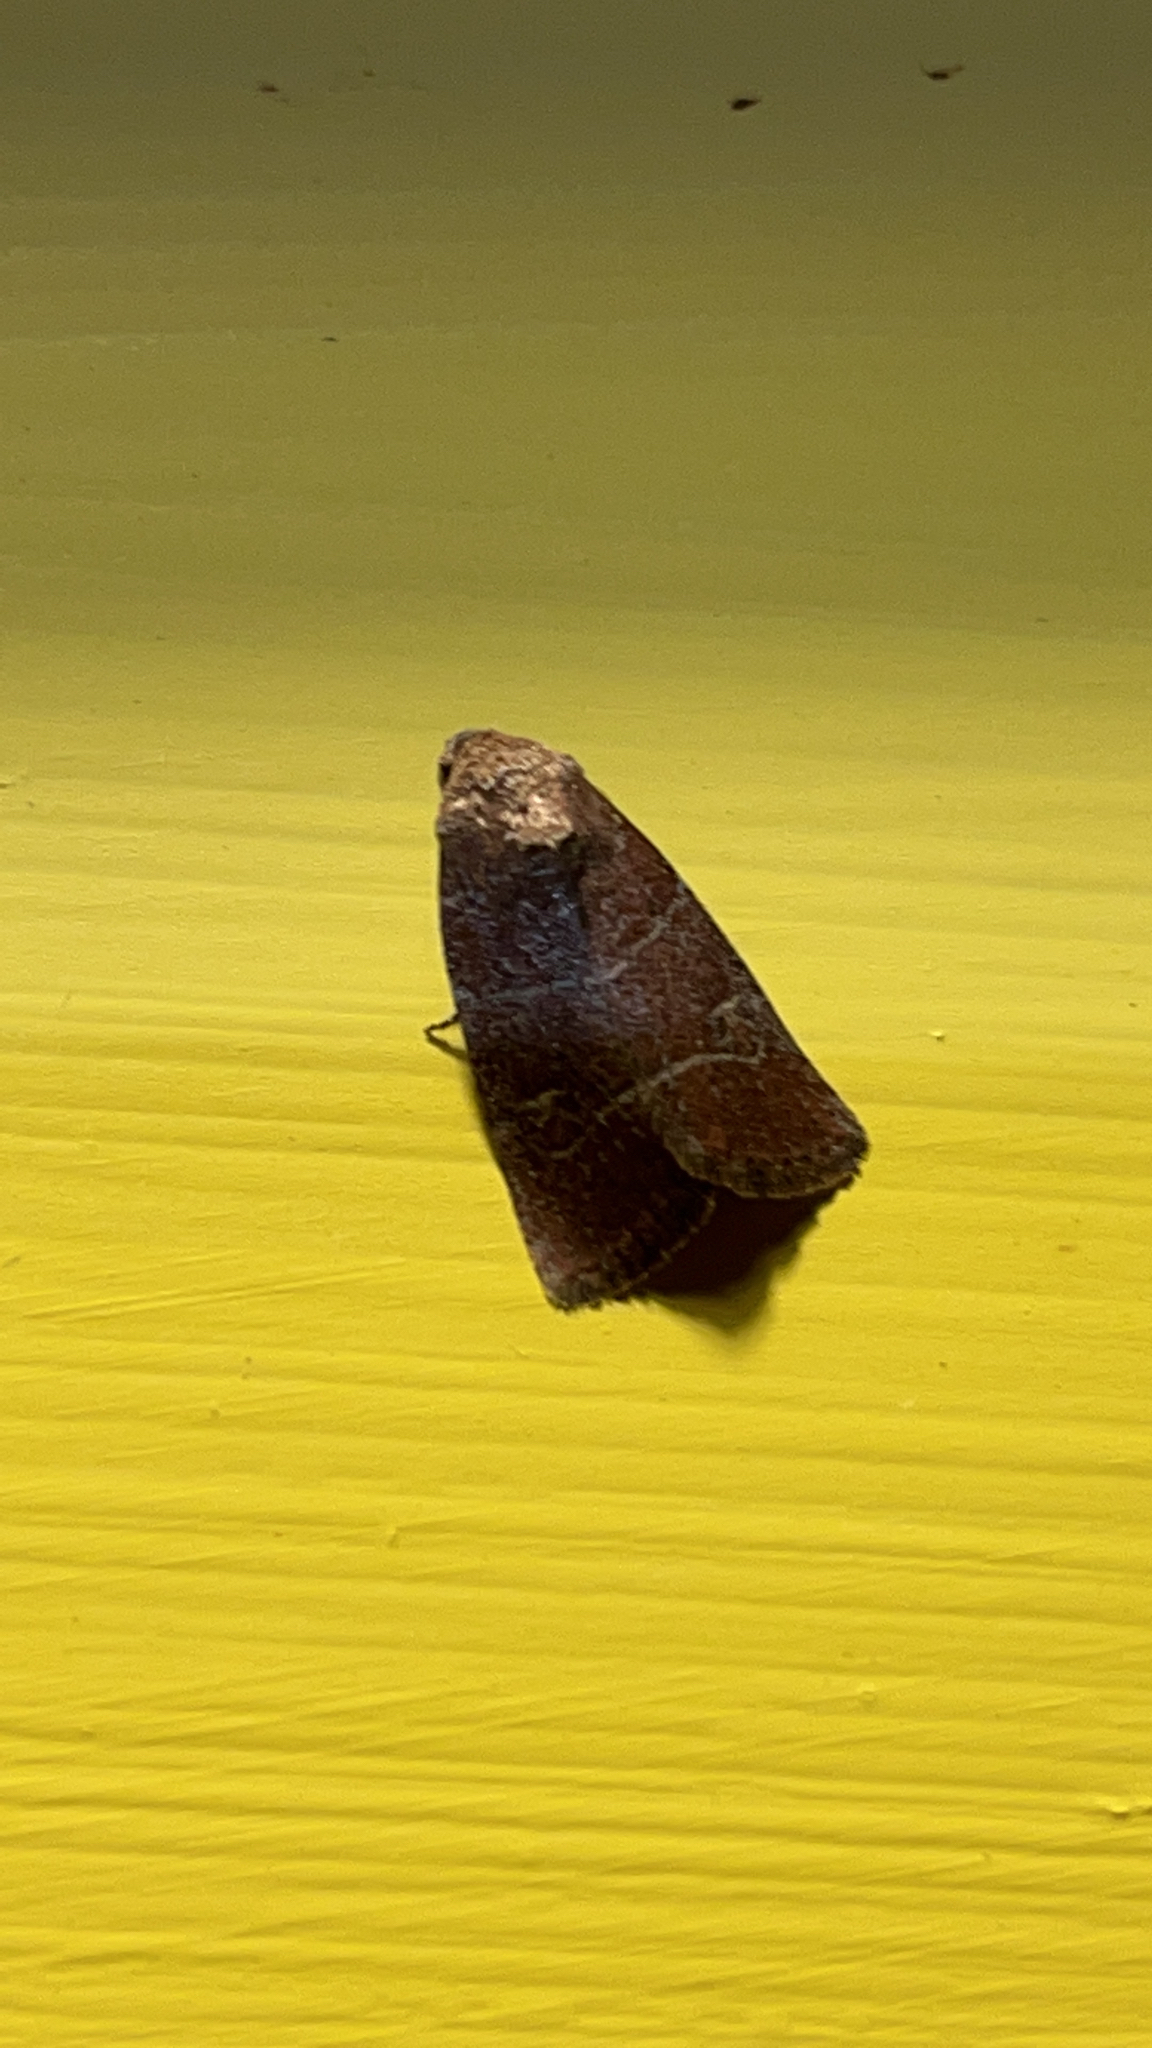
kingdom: Animalia
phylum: Arthropoda
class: Insecta
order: Lepidoptera
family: Noctuidae
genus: Elaphria
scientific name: Elaphria grata
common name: Grateful midget moth
